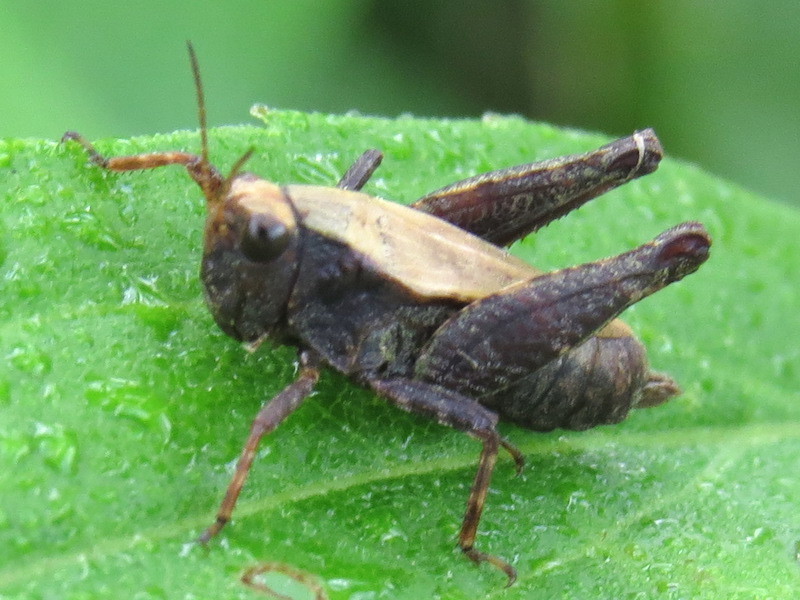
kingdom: Animalia
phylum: Arthropoda
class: Insecta
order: Orthoptera
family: Tetrigidae
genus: Tettigidea
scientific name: Tettigidea laterale
